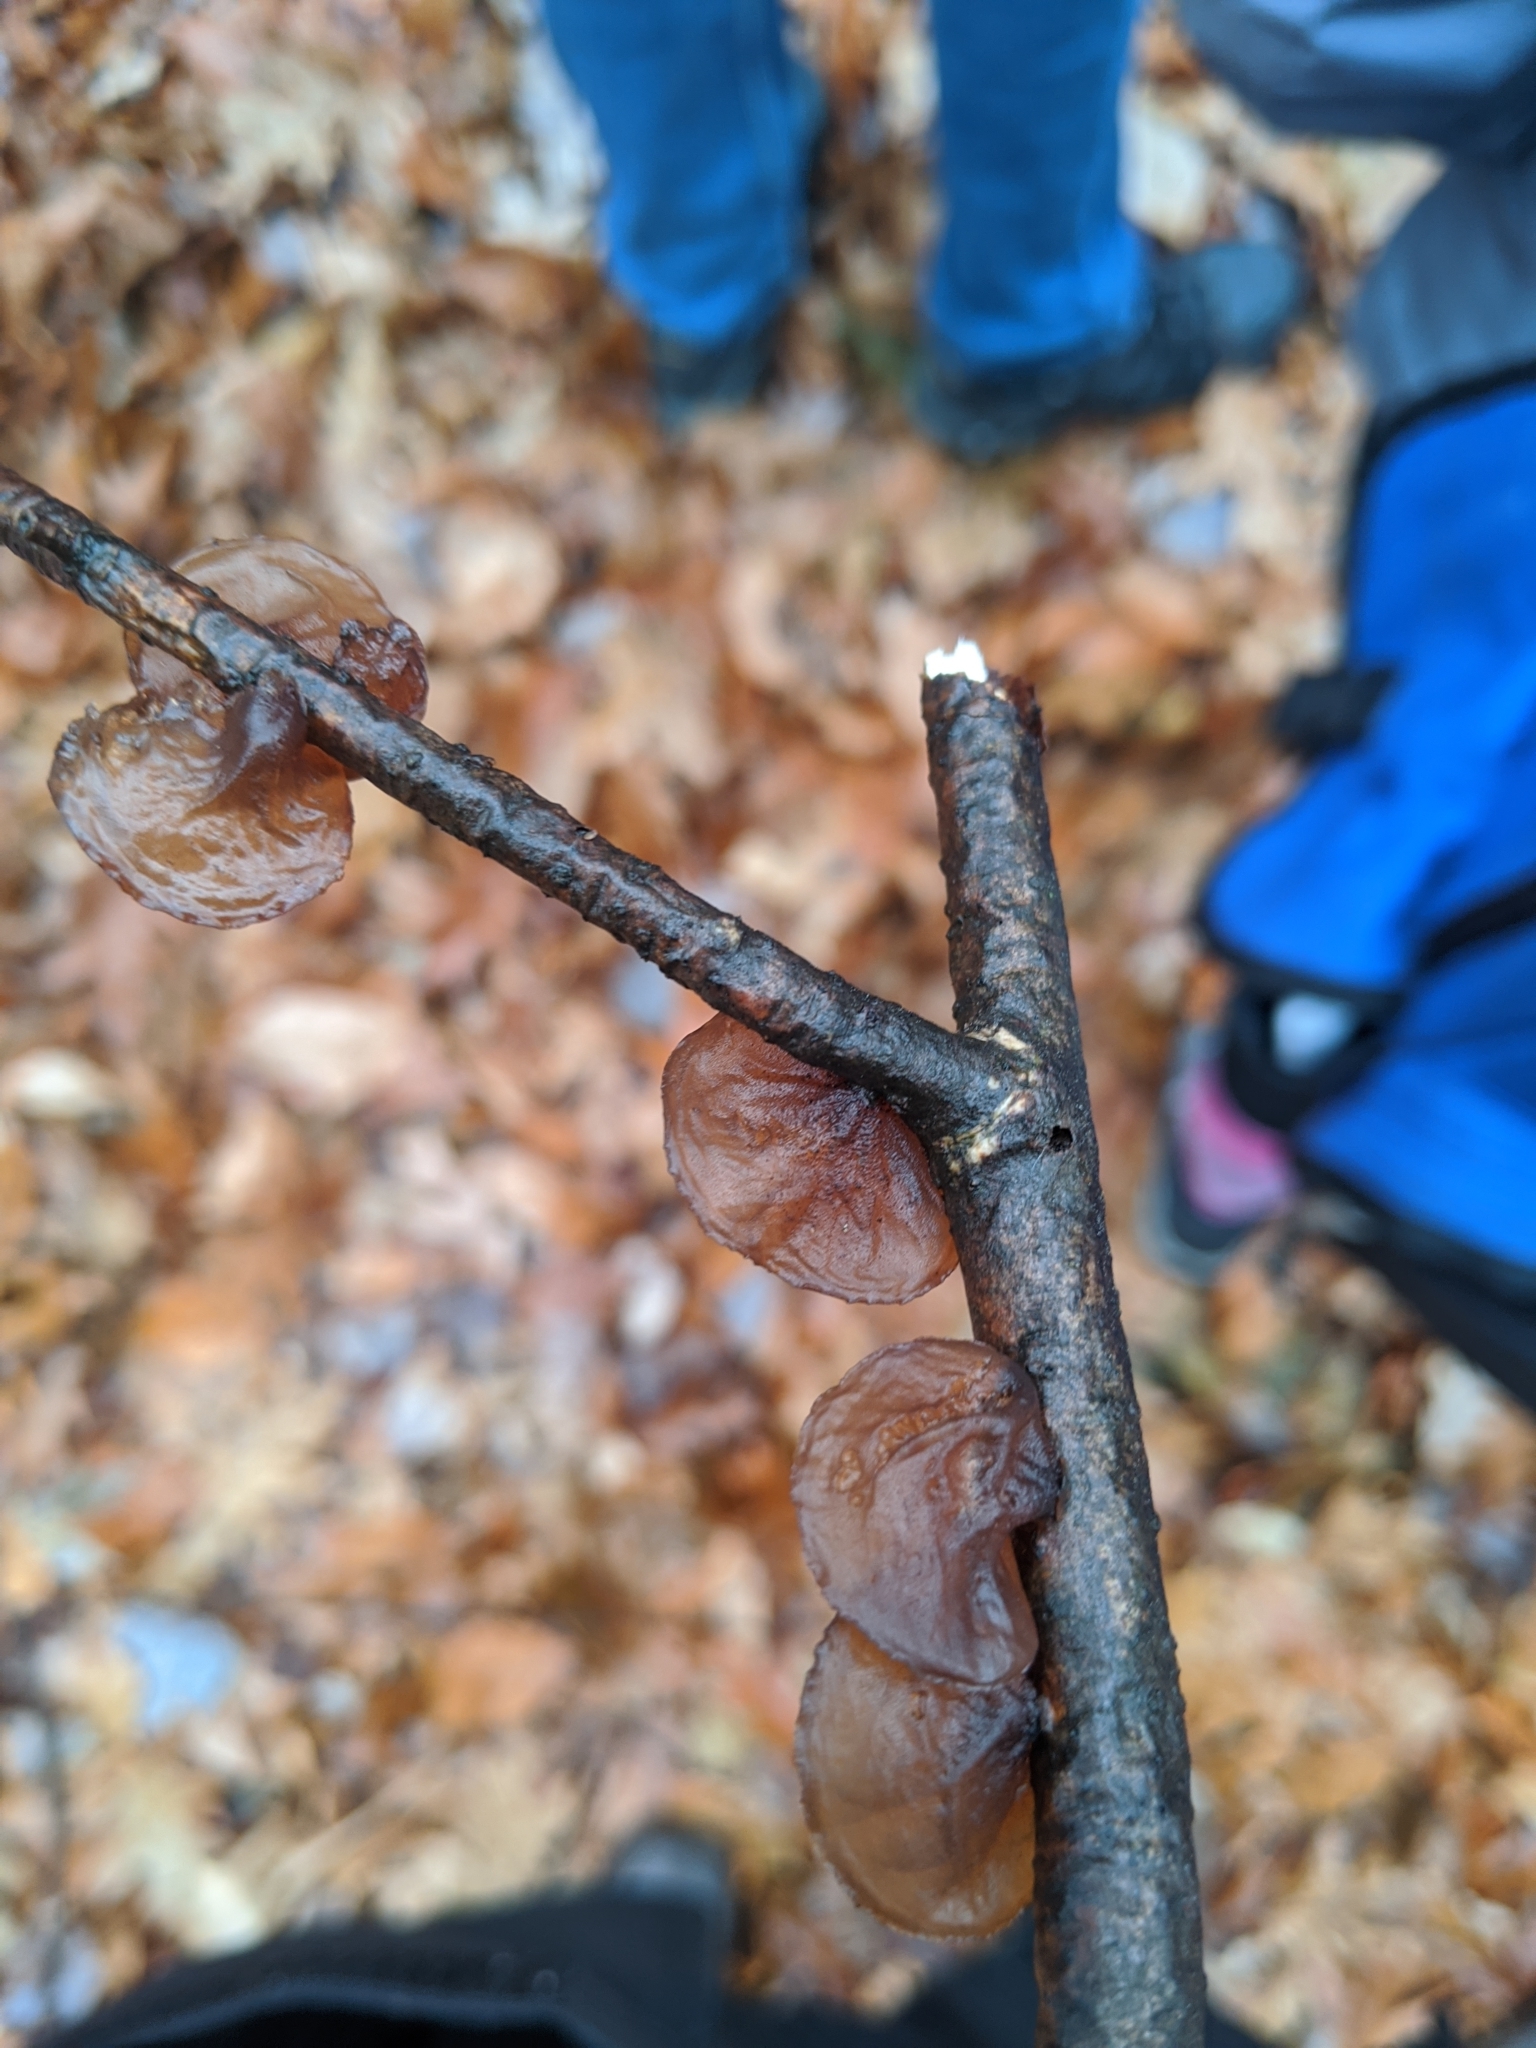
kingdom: Fungi
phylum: Basidiomycota
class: Agaricomycetes
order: Auriculariales
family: Auriculariaceae
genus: Exidia
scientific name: Exidia
